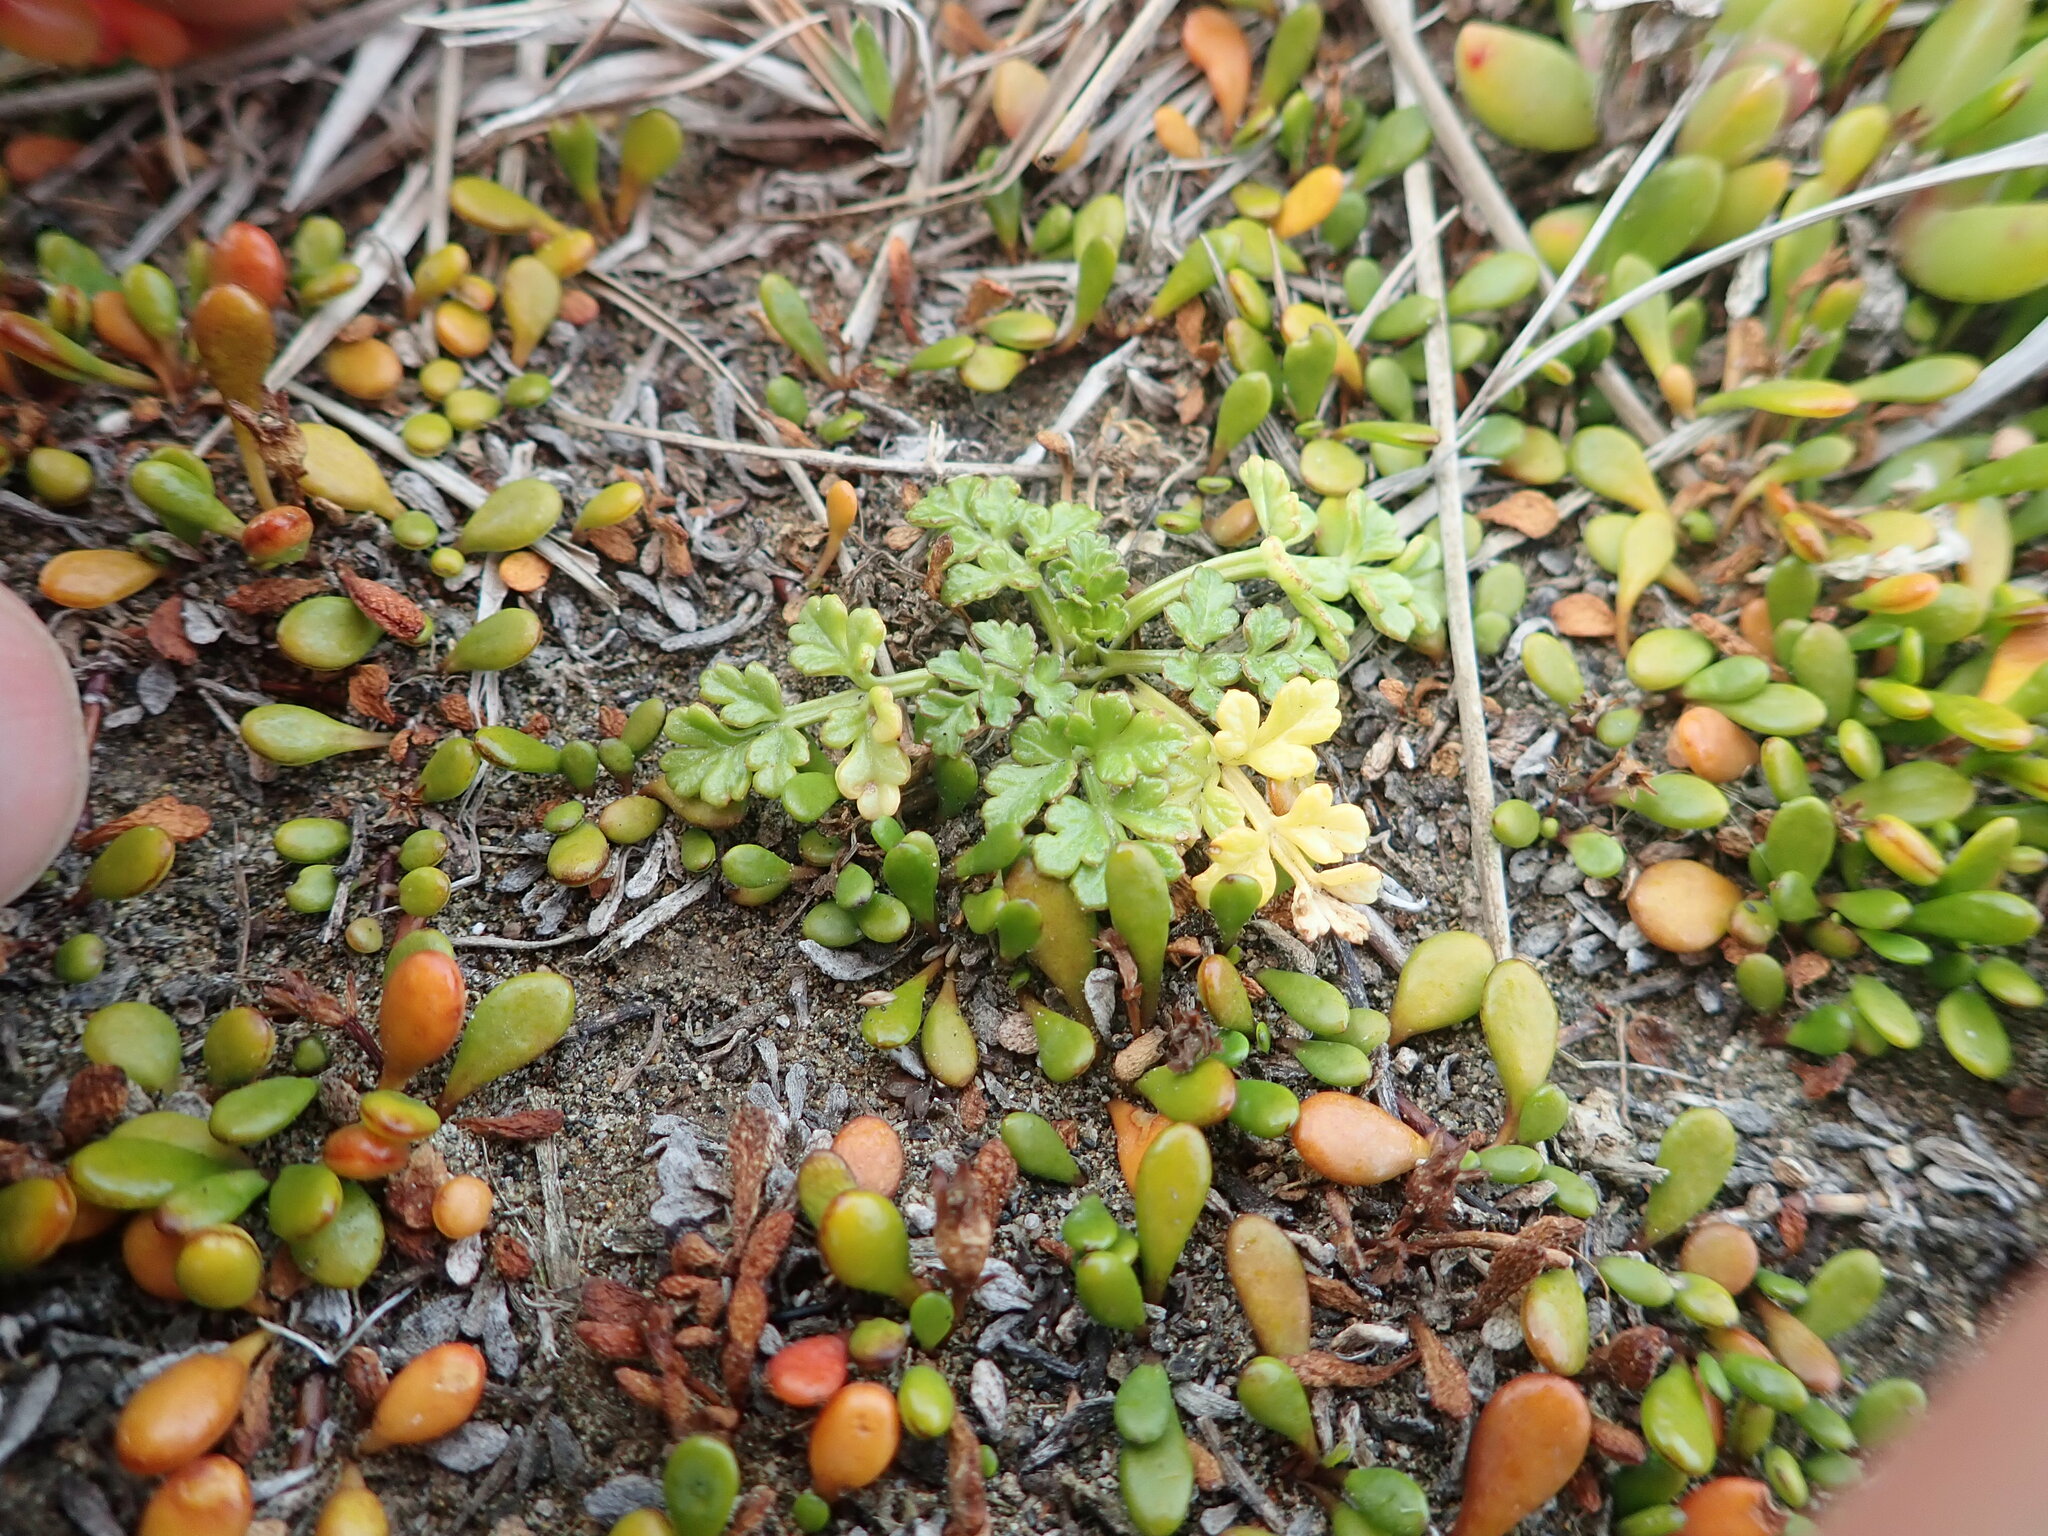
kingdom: Plantae
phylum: Tracheophyta
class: Magnoliopsida
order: Apiales
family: Apiaceae
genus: Apium
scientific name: Apium prostratum
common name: Prostrate marshwort
